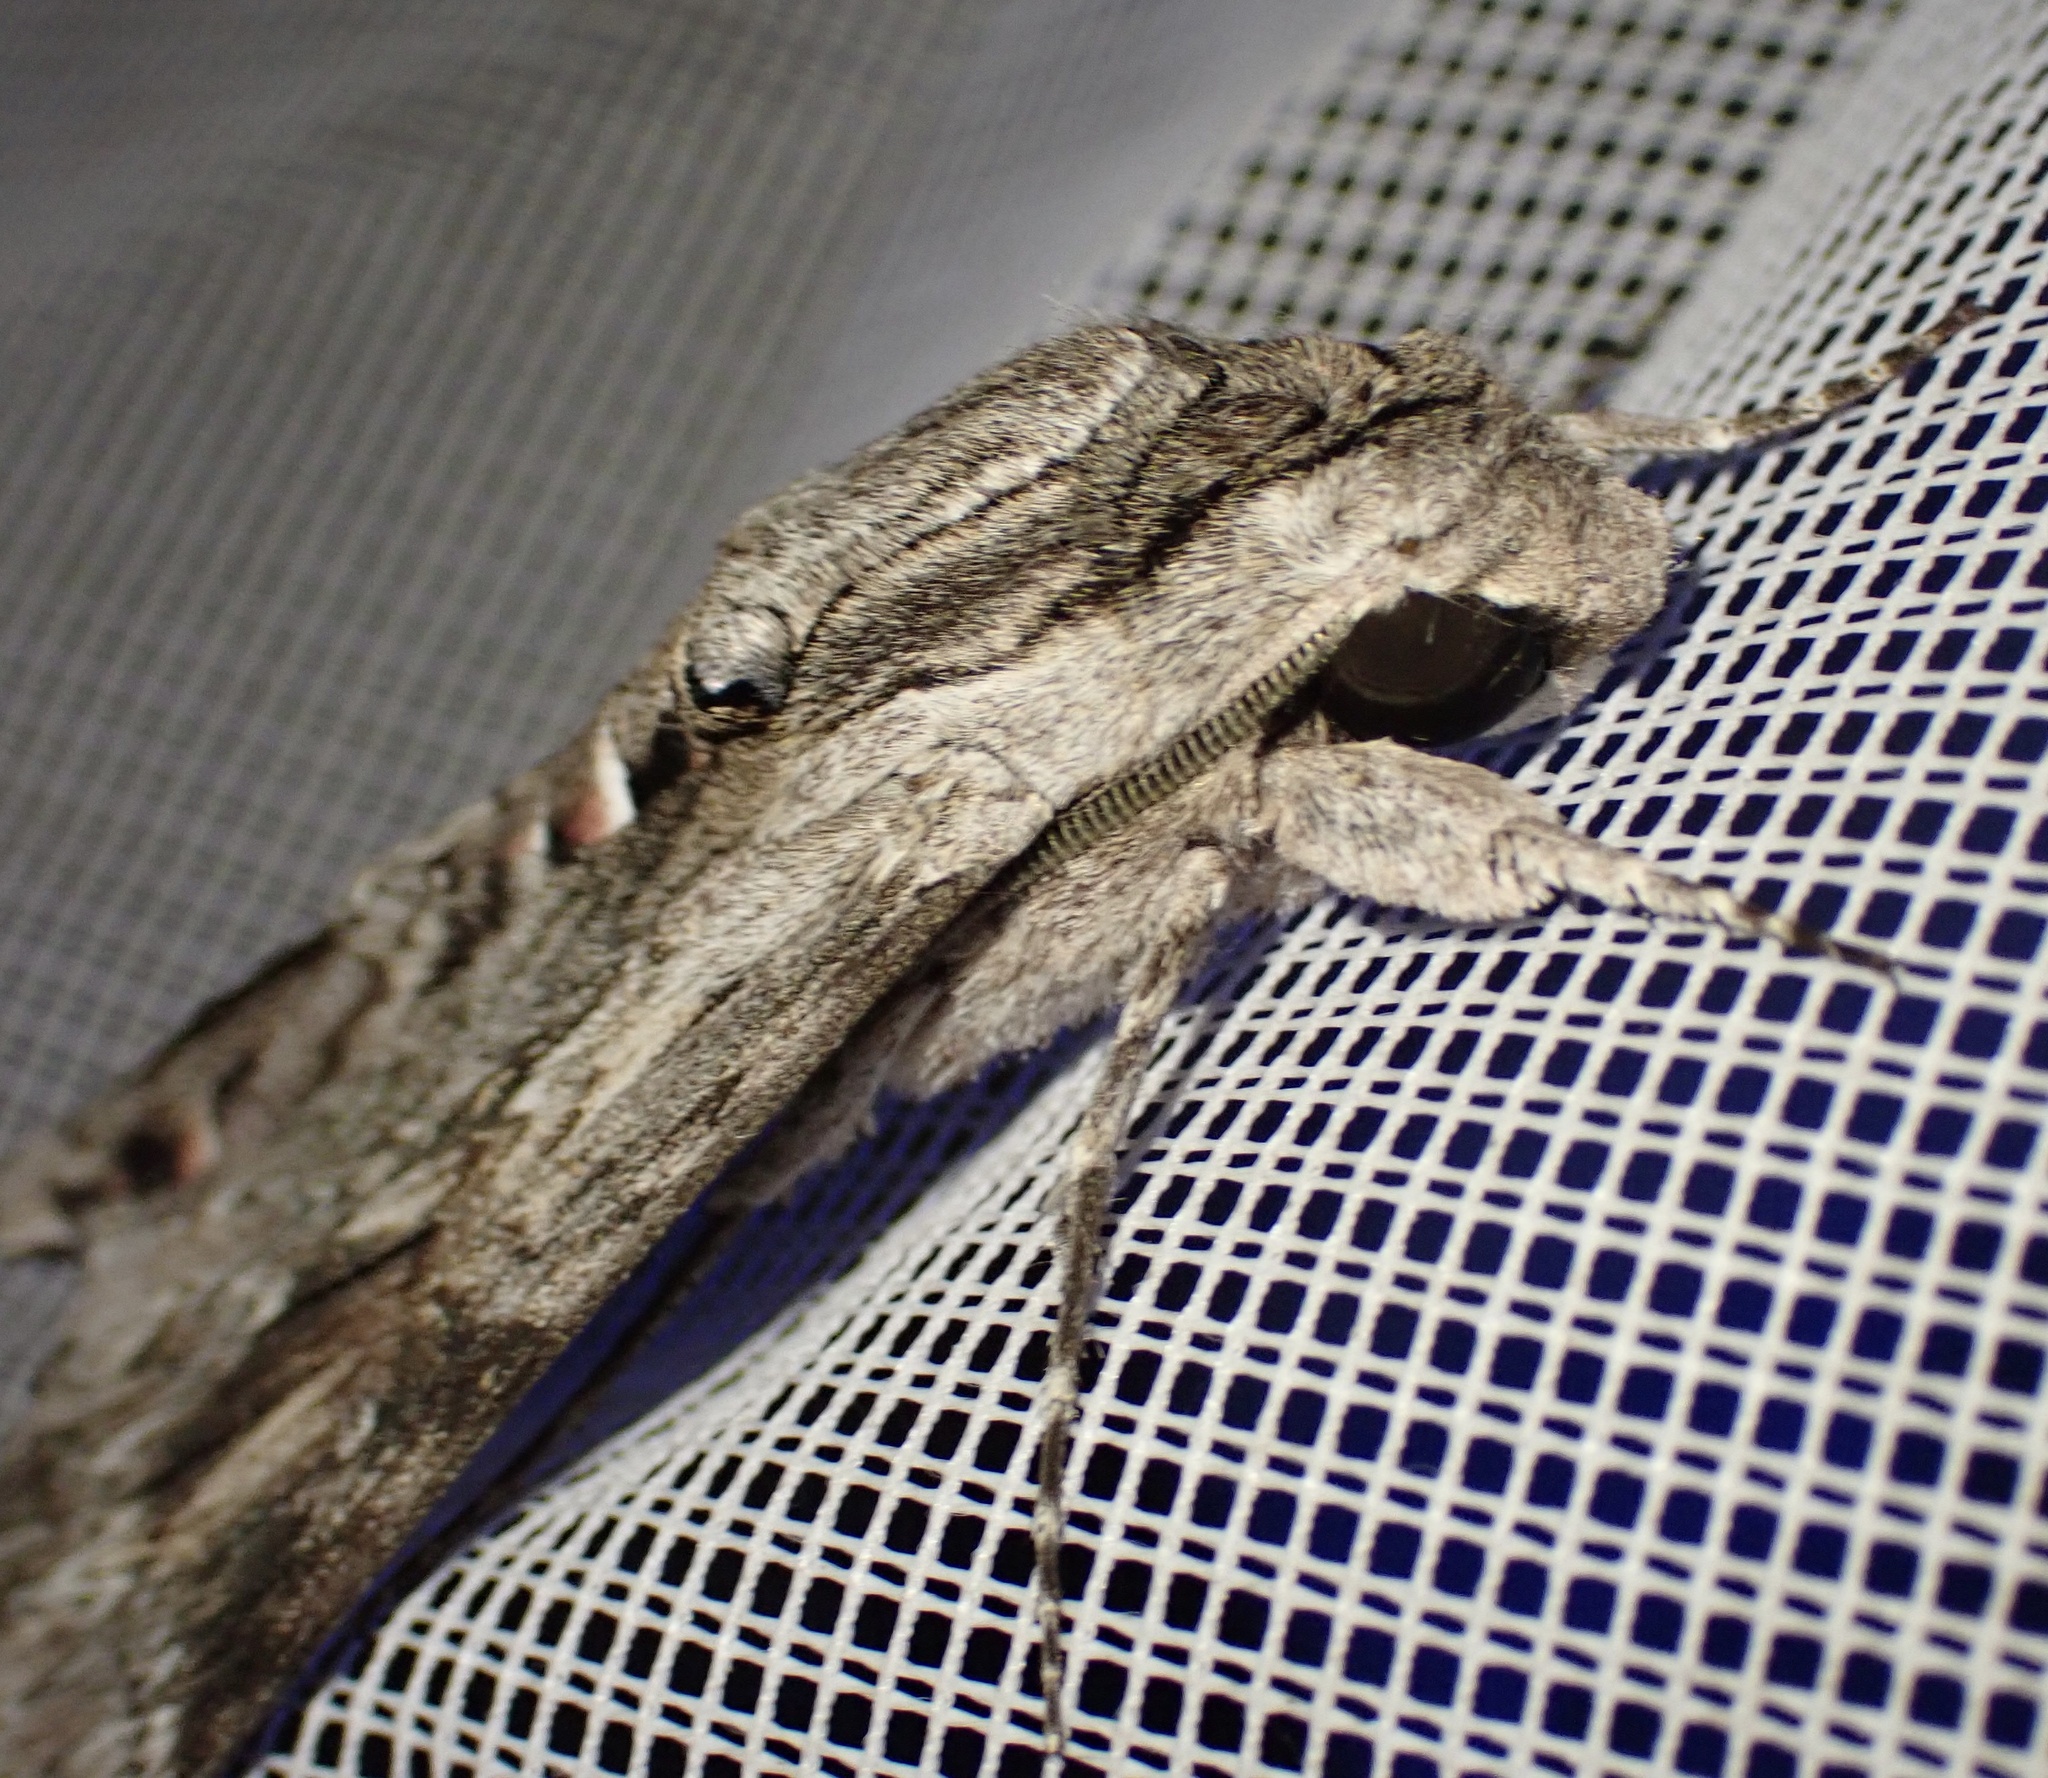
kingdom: Animalia
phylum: Arthropoda
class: Insecta
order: Lepidoptera
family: Sphingidae
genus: Agrius
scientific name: Agrius convolvuli
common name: Convolvulus hawkmoth
